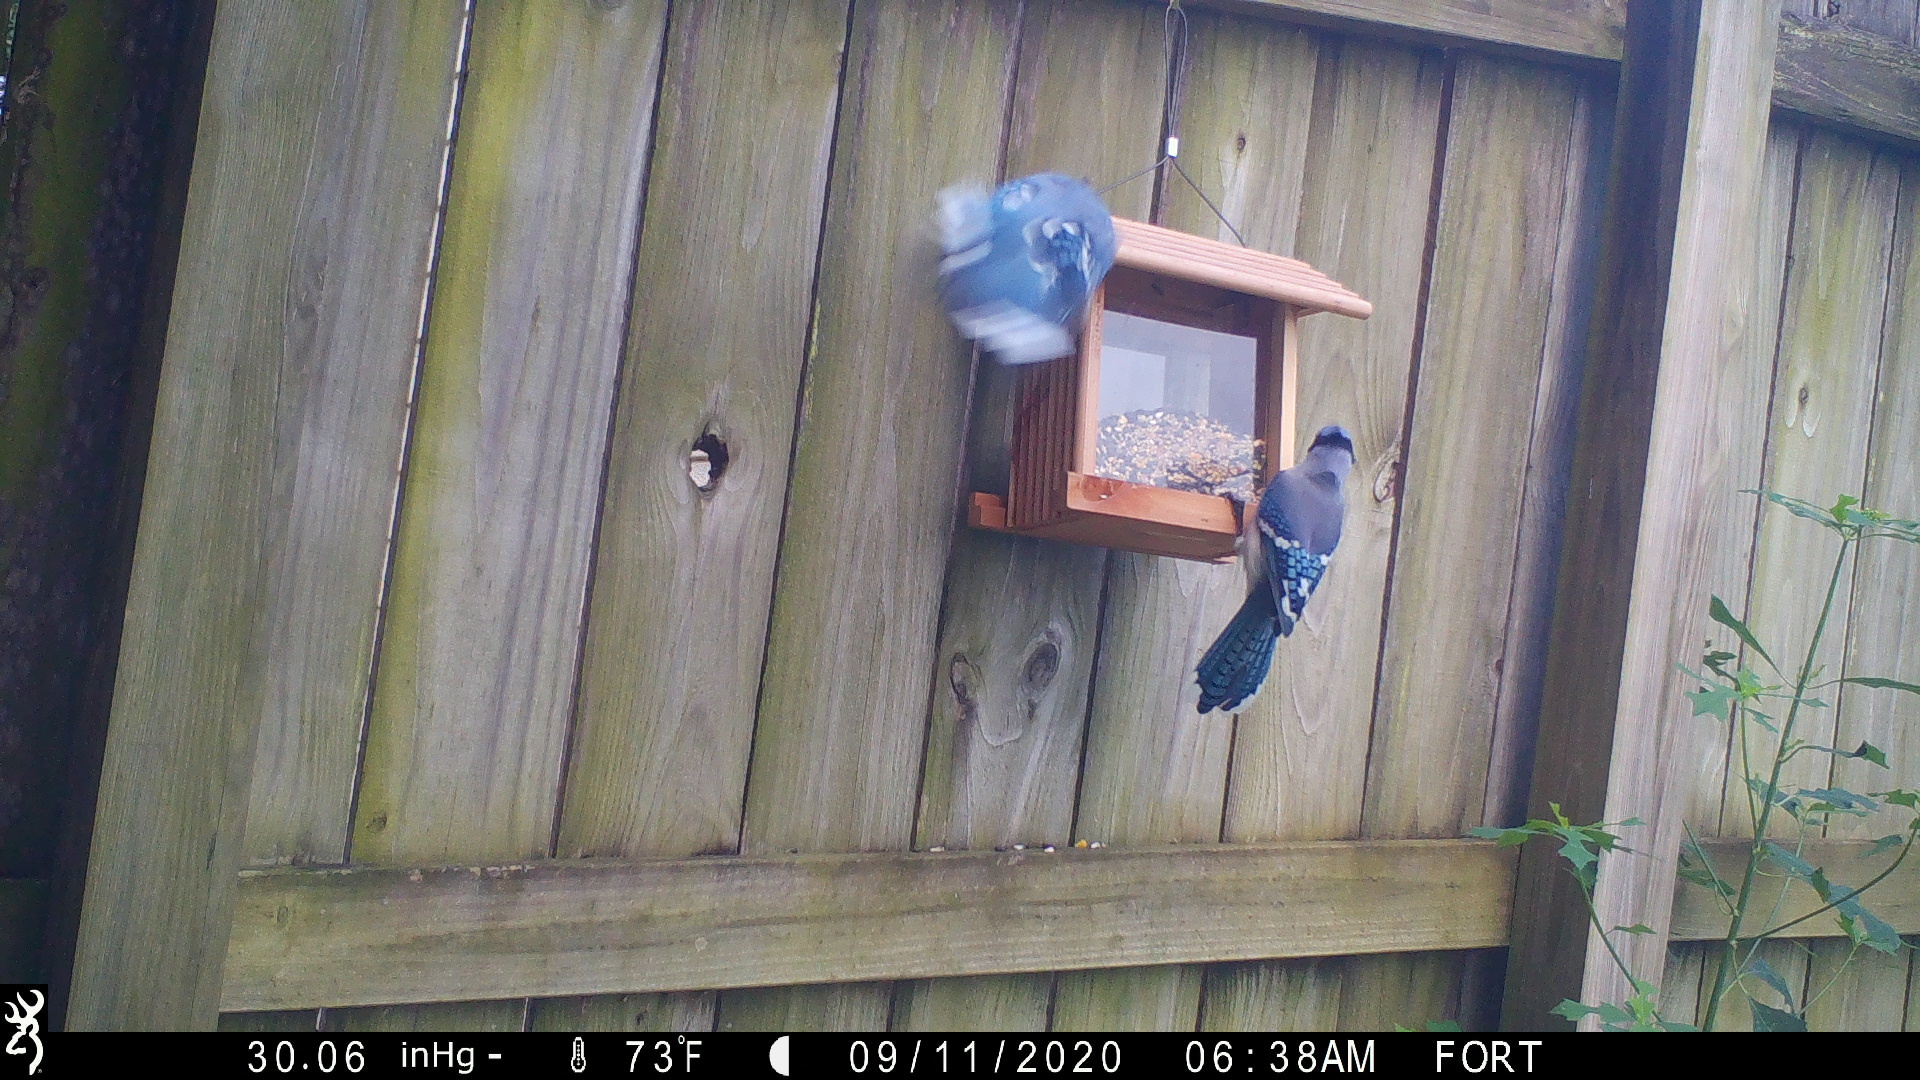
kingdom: Animalia
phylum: Chordata
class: Aves
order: Passeriformes
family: Corvidae
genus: Cyanocitta
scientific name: Cyanocitta cristata
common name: Blue jay
